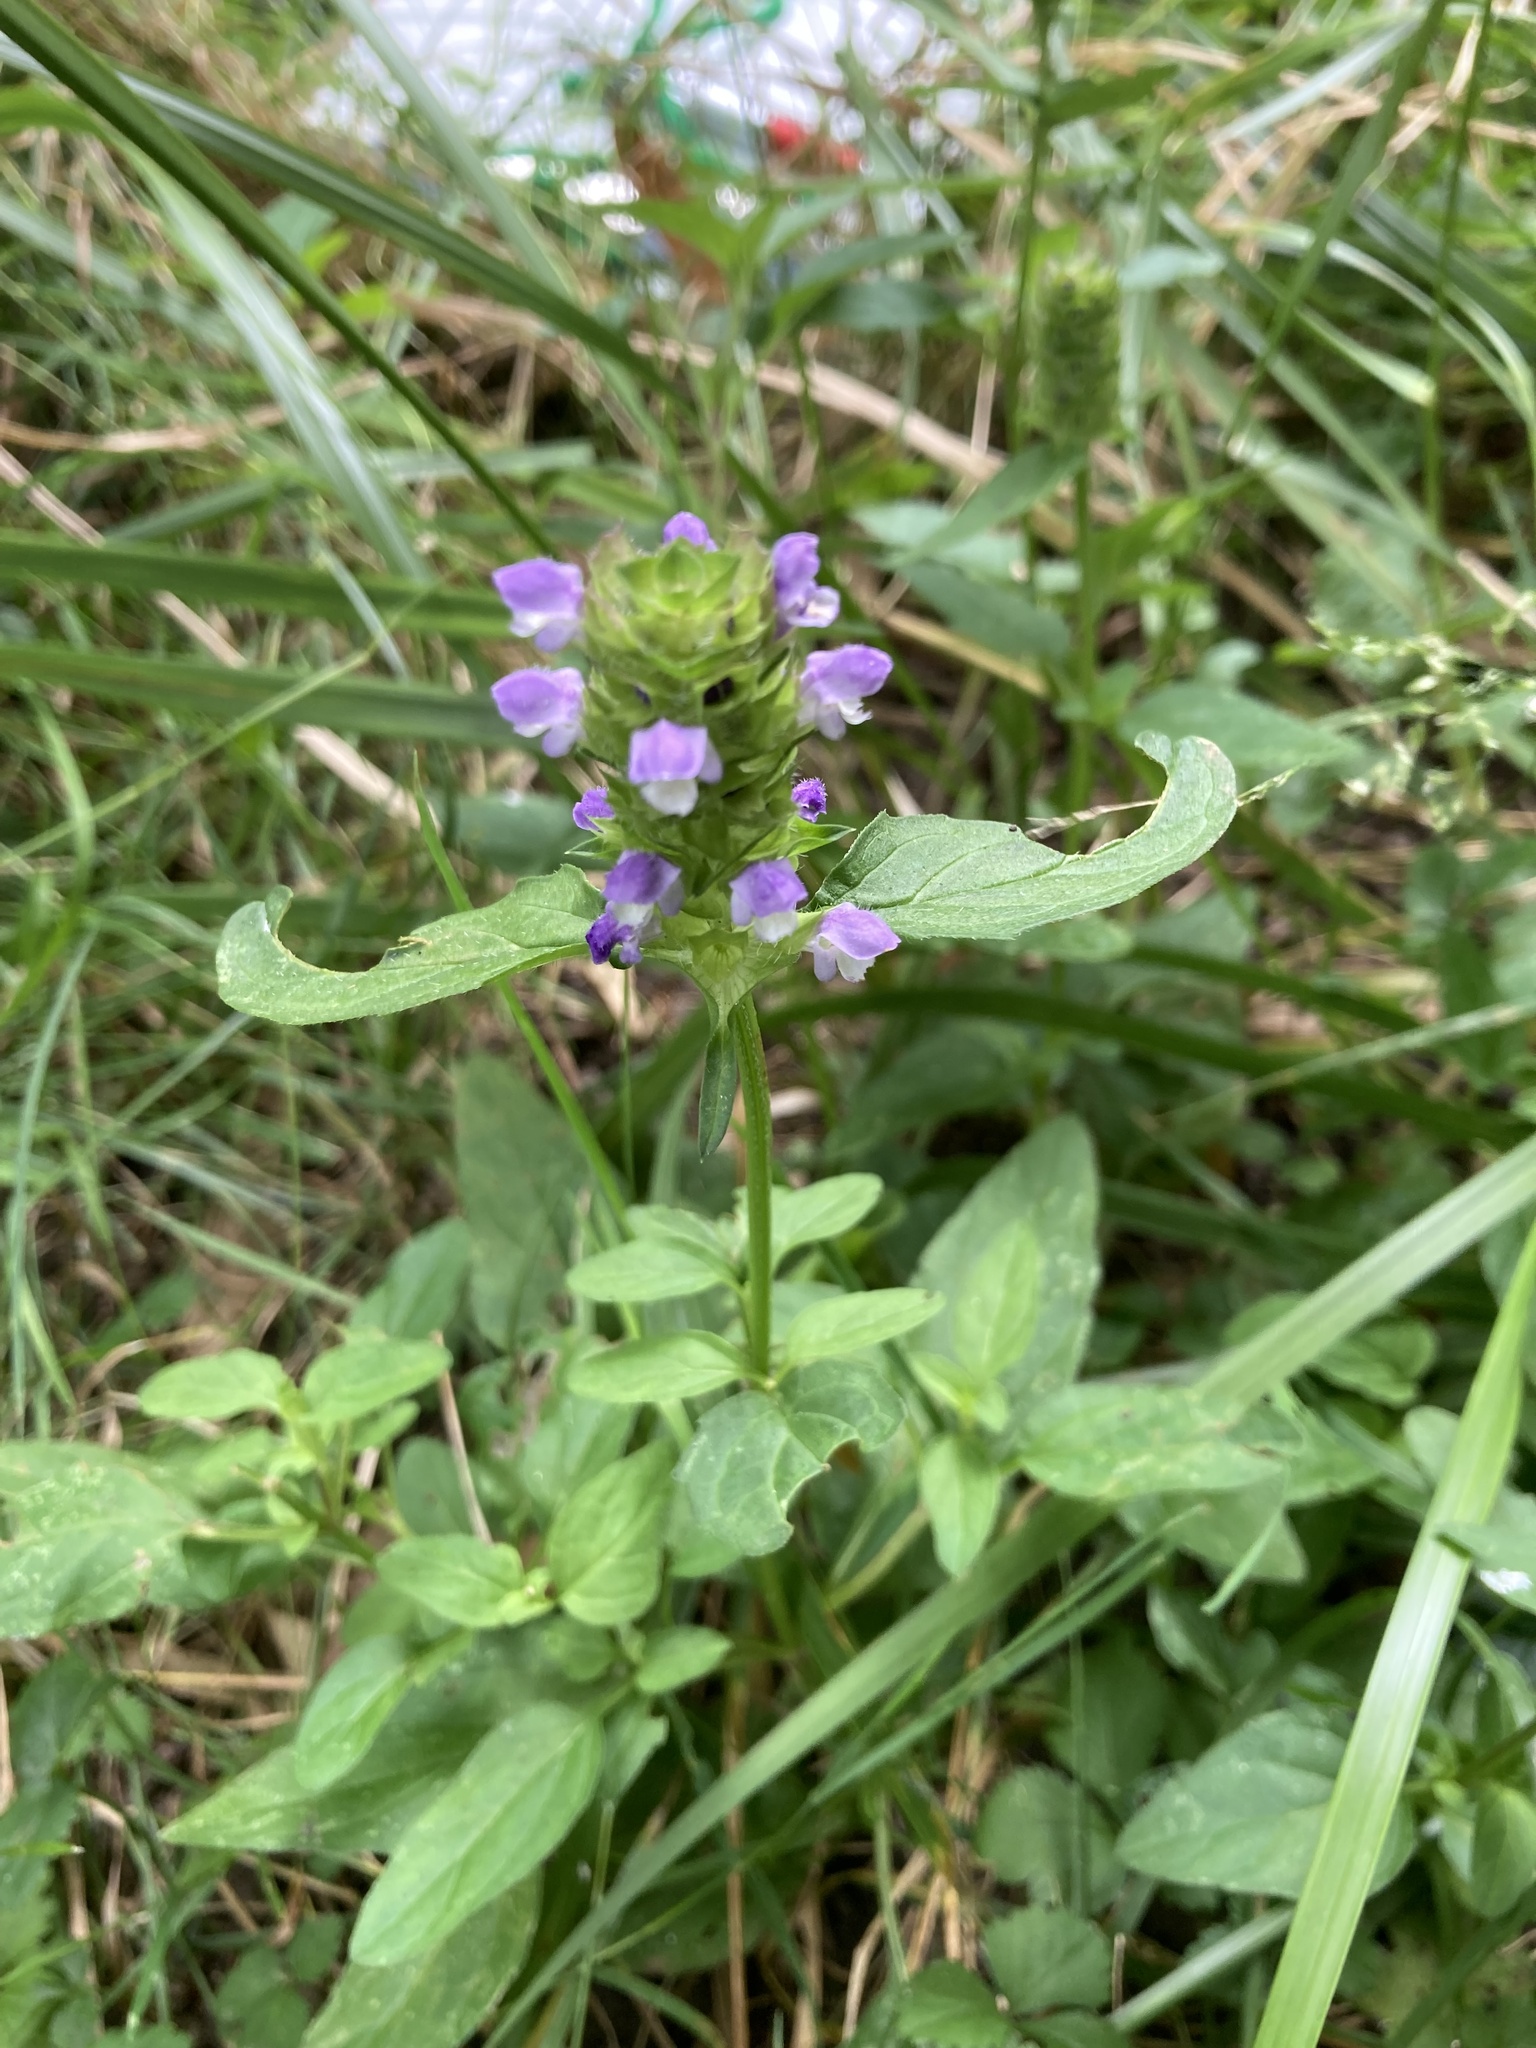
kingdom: Plantae
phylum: Tracheophyta
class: Magnoliopsida
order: Lamiales
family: Lamiaceae
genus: Prunella
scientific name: Prunella vulgaris
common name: Heal-all
